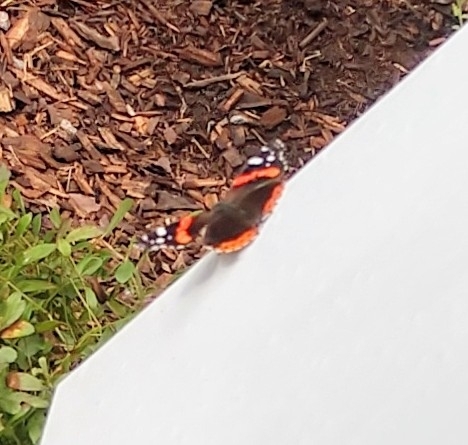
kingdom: Animalia
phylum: Arthropoda
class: Insecta
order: Lepidoptera
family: Nymphalidae
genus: Vanessa
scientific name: Vanessa atalanta
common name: Red admiral
